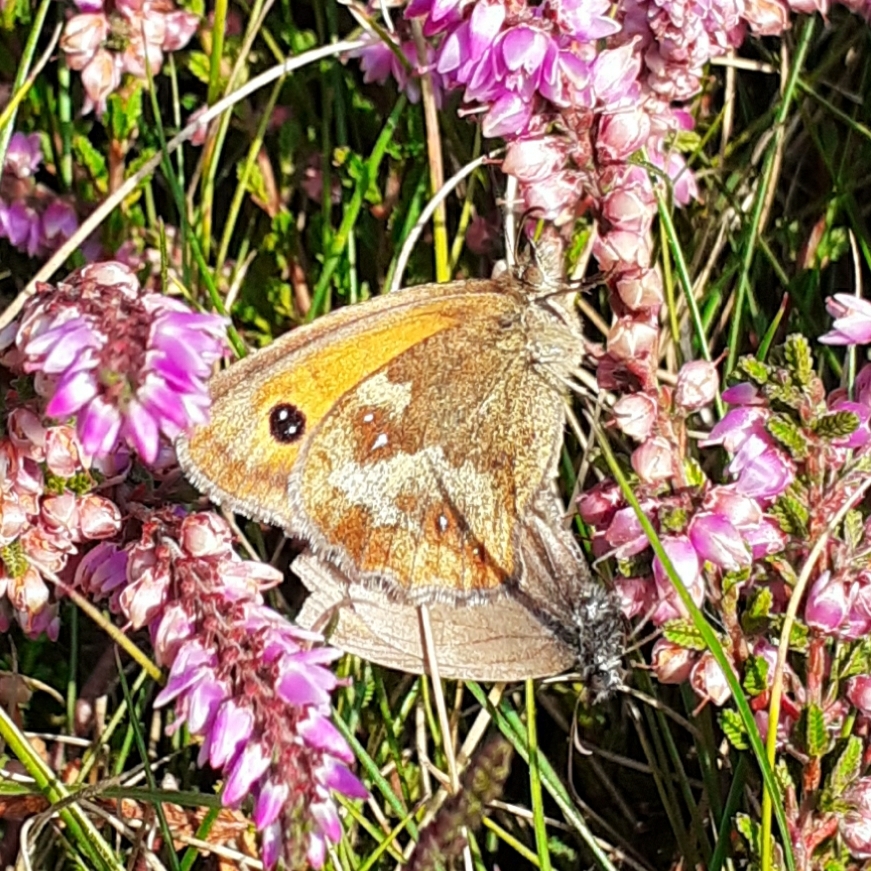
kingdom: Animalia
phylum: Arthropoda
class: Insecta
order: Lepidoptera
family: Nymphalidae
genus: Pyronia
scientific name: Pyronia tithonus
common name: Gatekeeper
